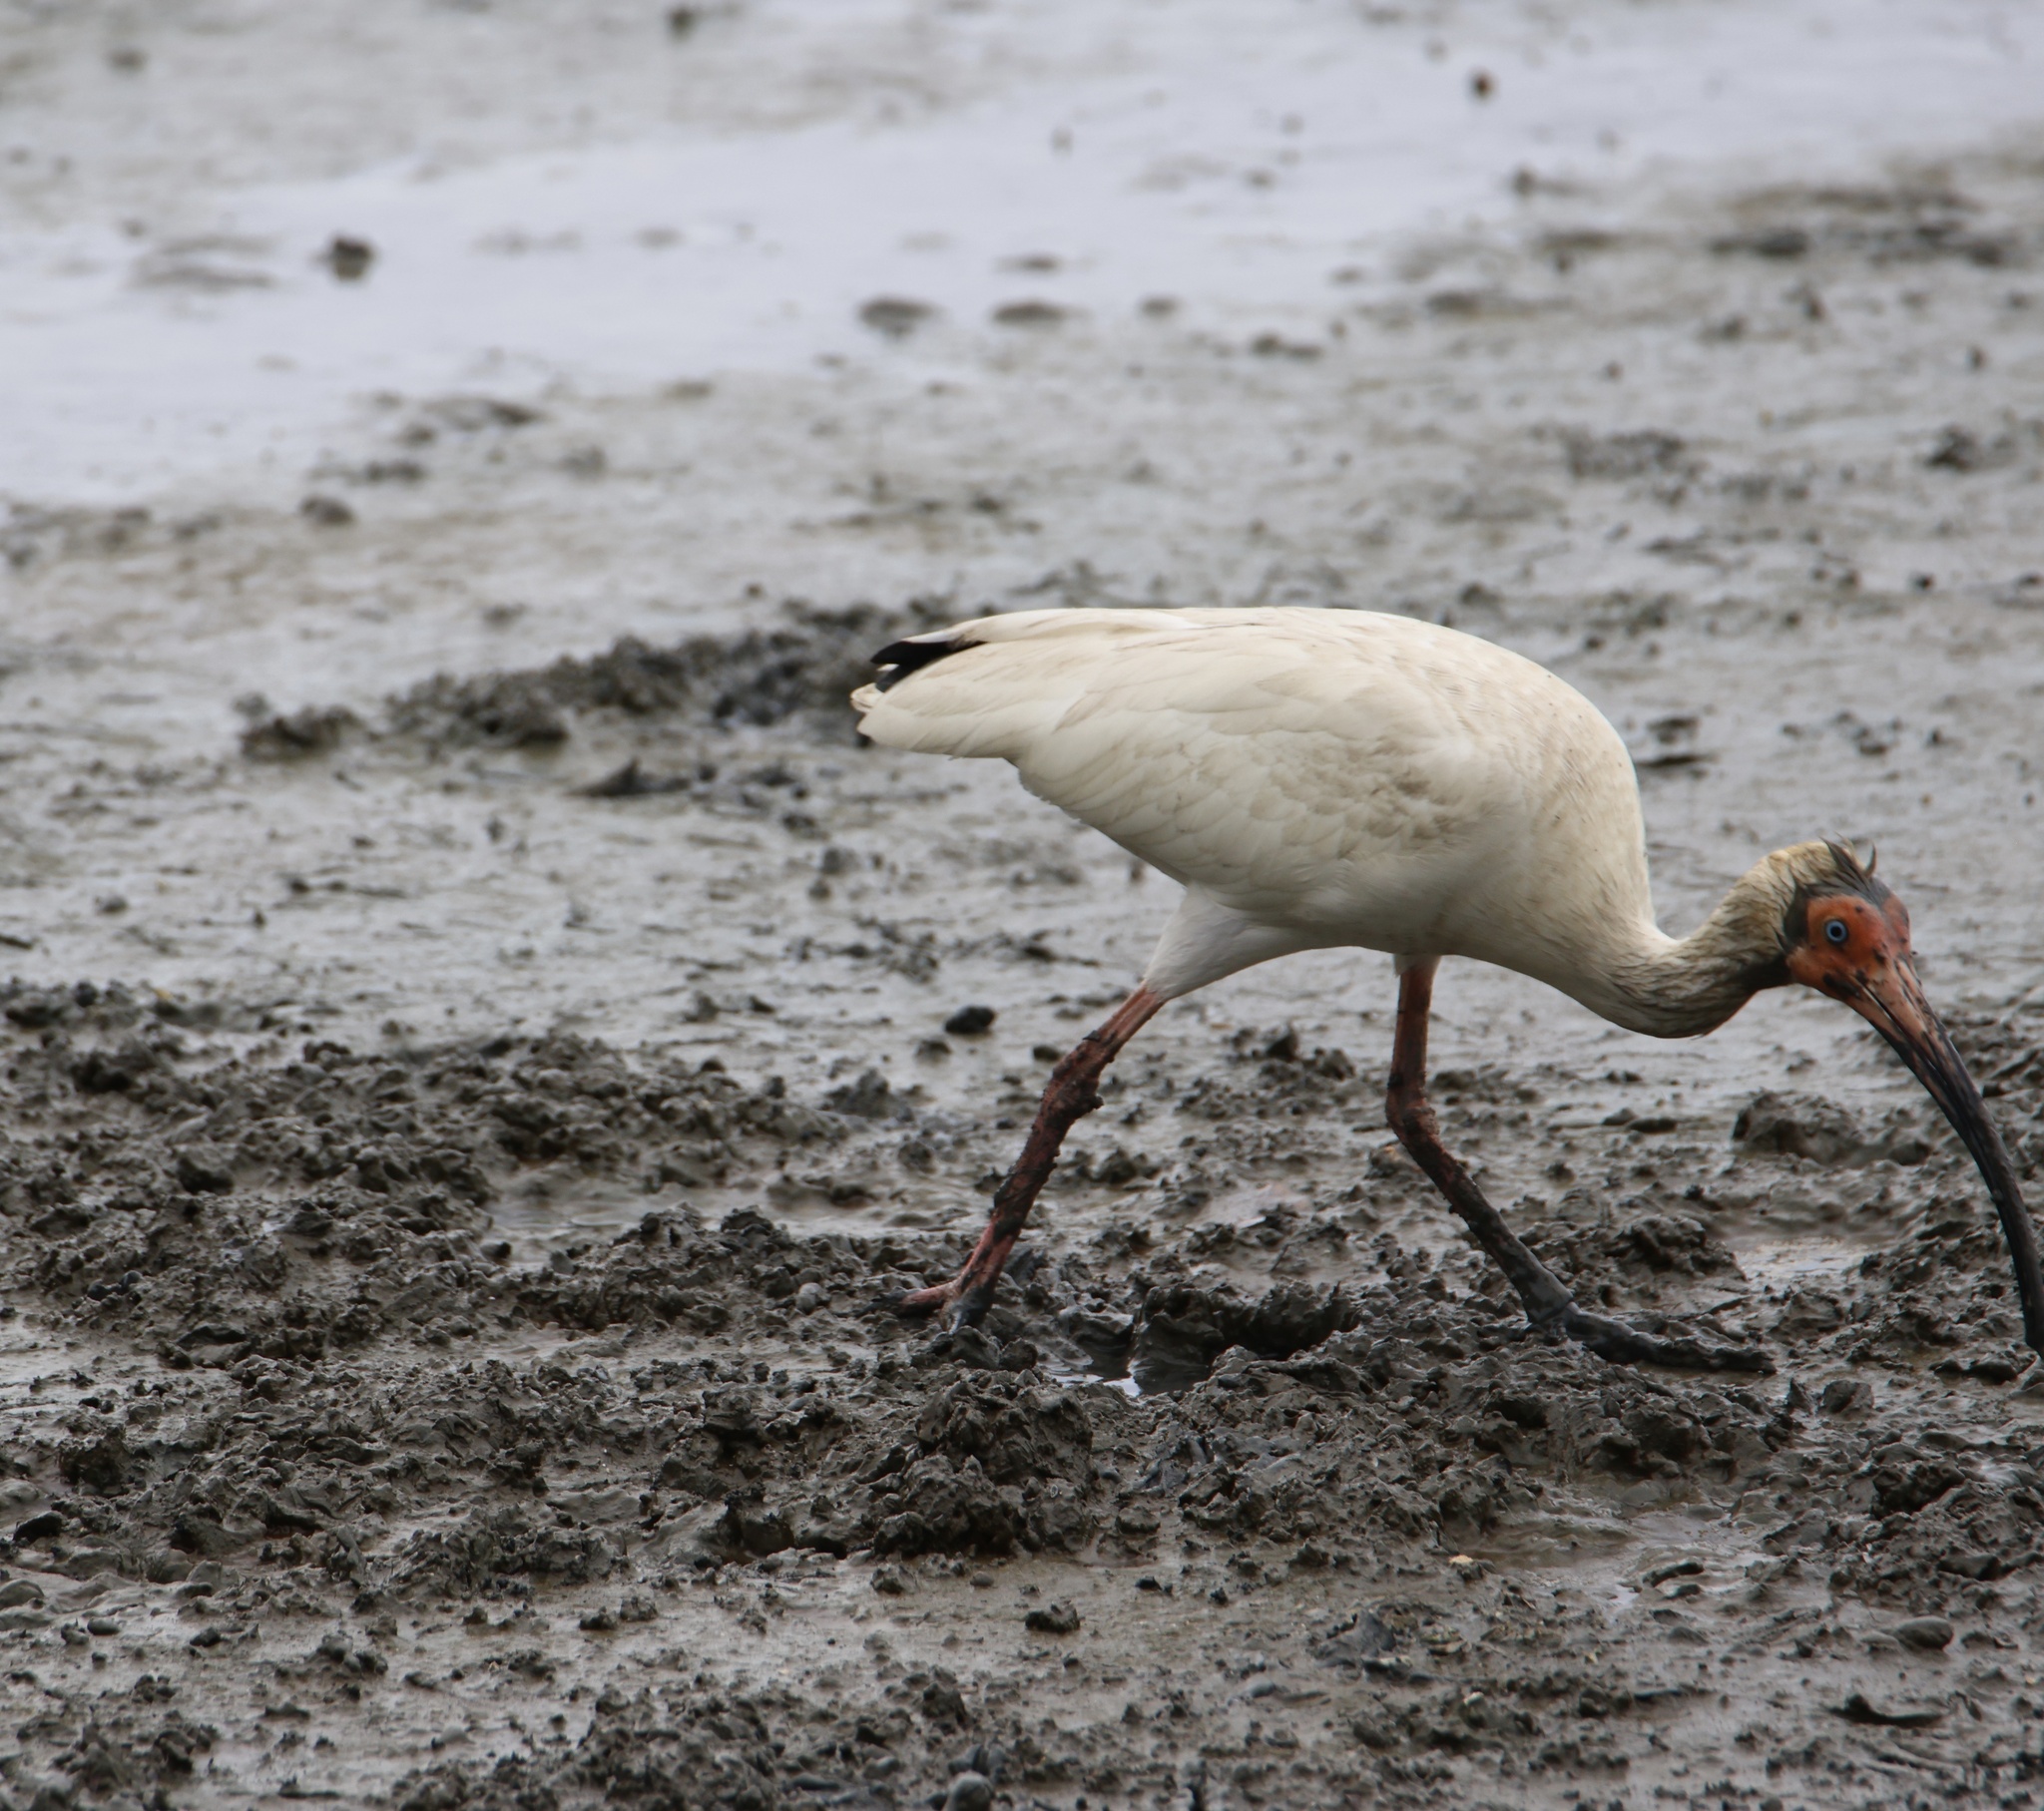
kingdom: Animalia
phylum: Chordata
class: Aves
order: Pelecaniformes
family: Threskiornithidae
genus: Eudocimus
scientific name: Eudocimus albus
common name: White ibis
